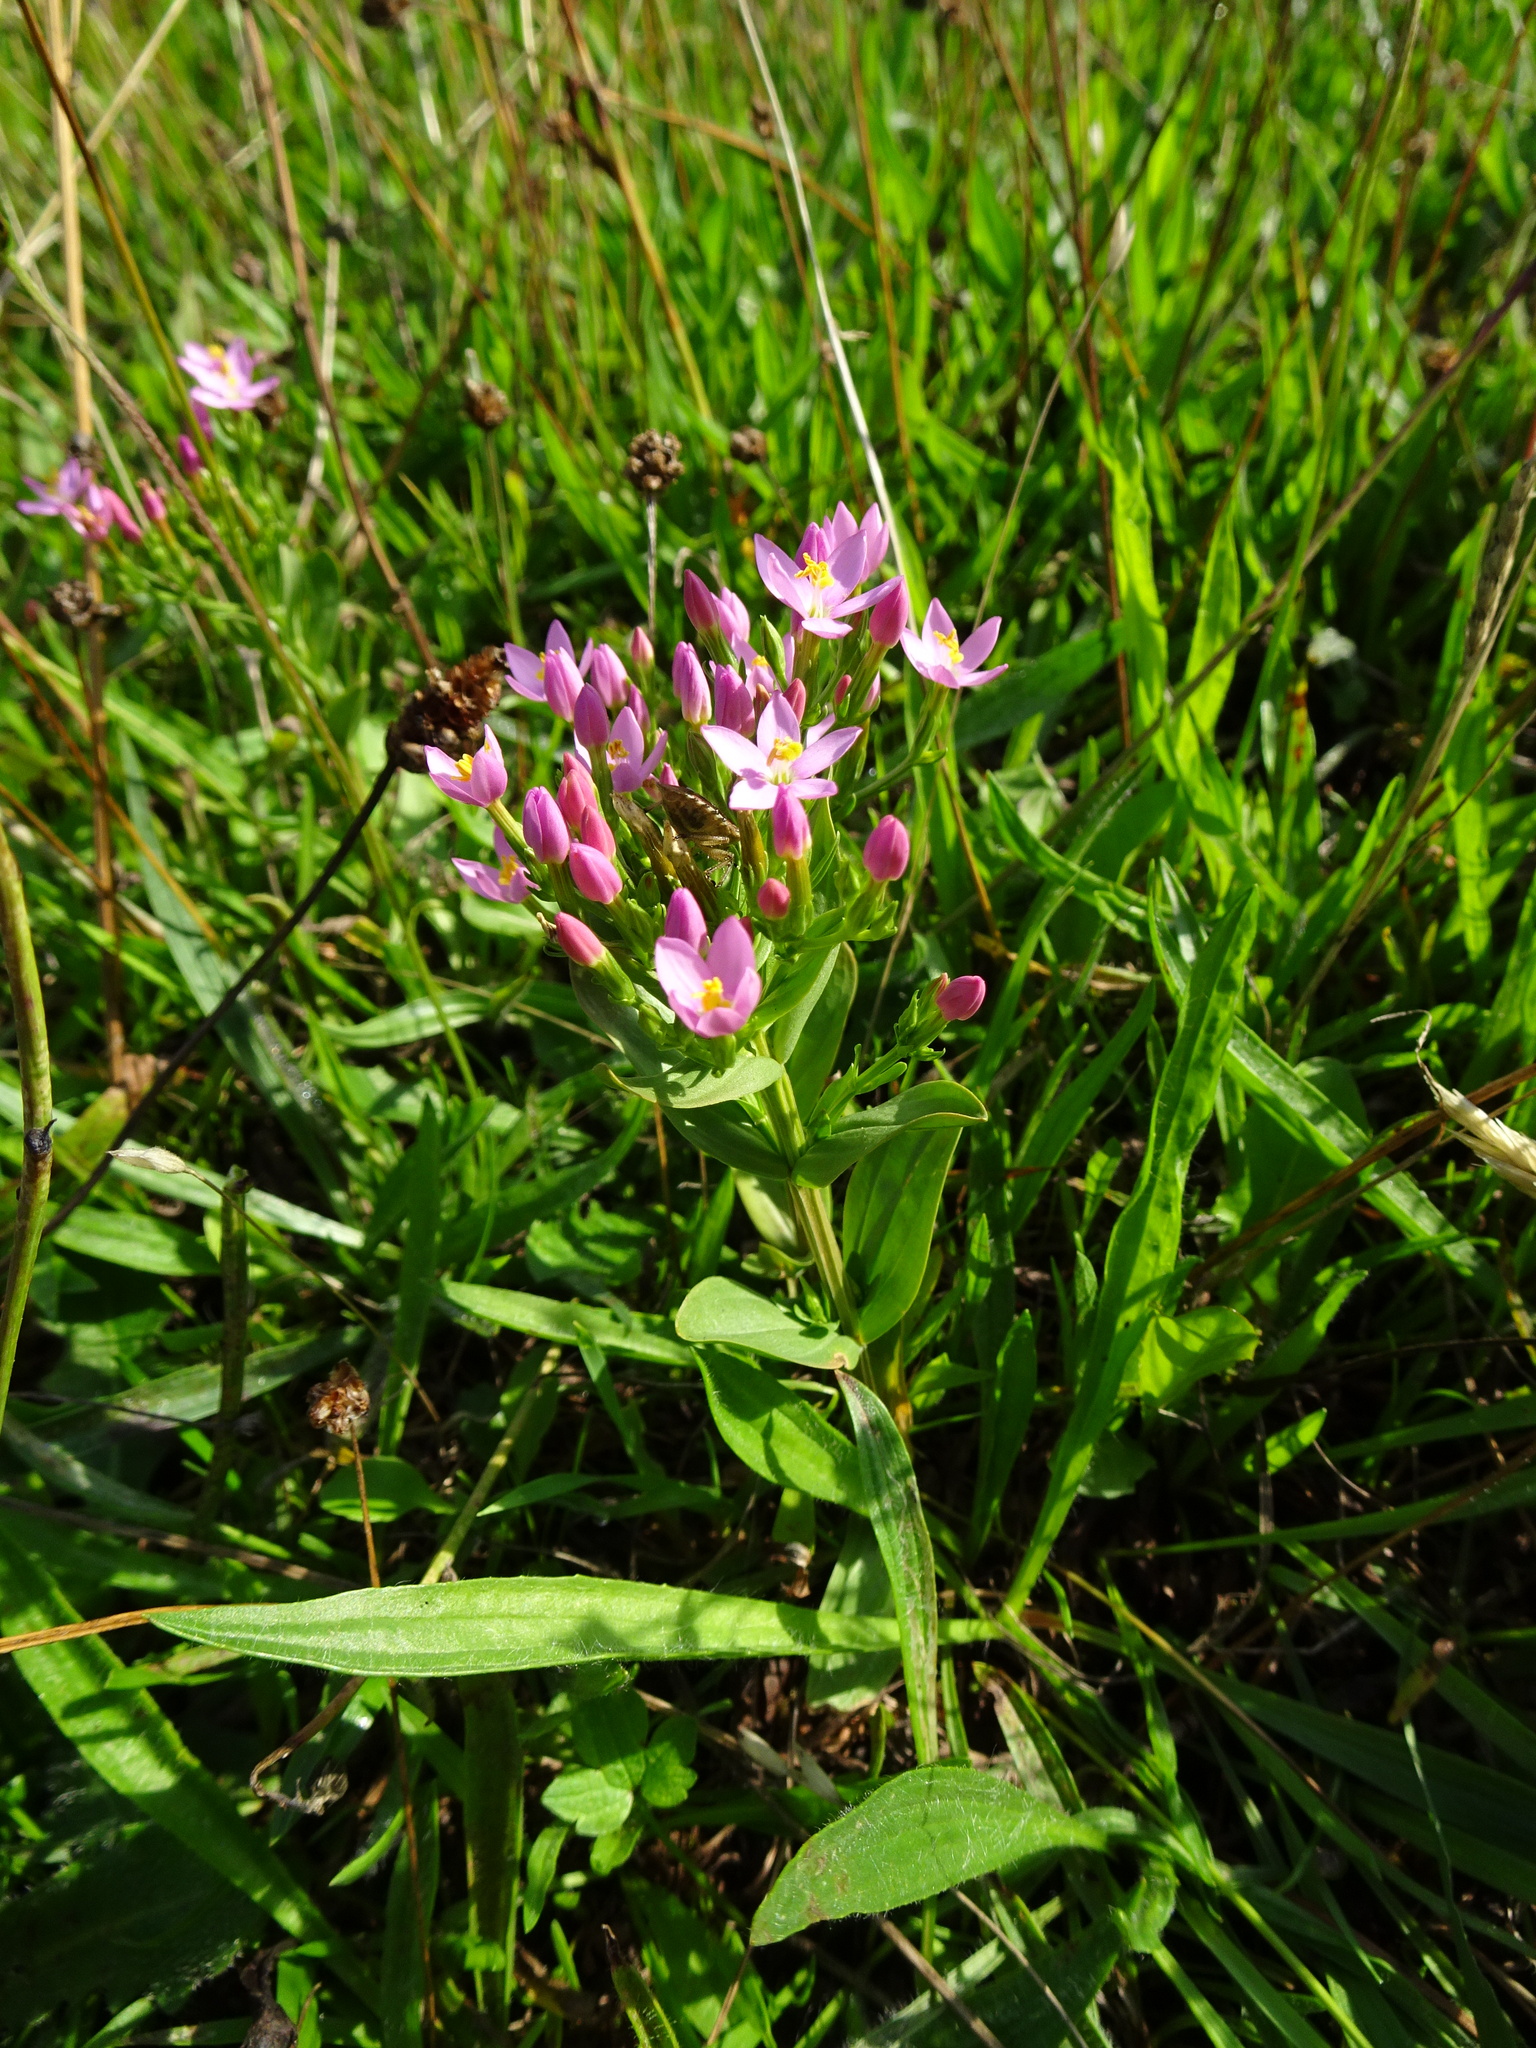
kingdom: Plantae
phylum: Tracheophyta
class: Magnoliopsida
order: Gentianales
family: Gentianaceae
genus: Centaurium
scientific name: Centaurium erythraea
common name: Common centaury
